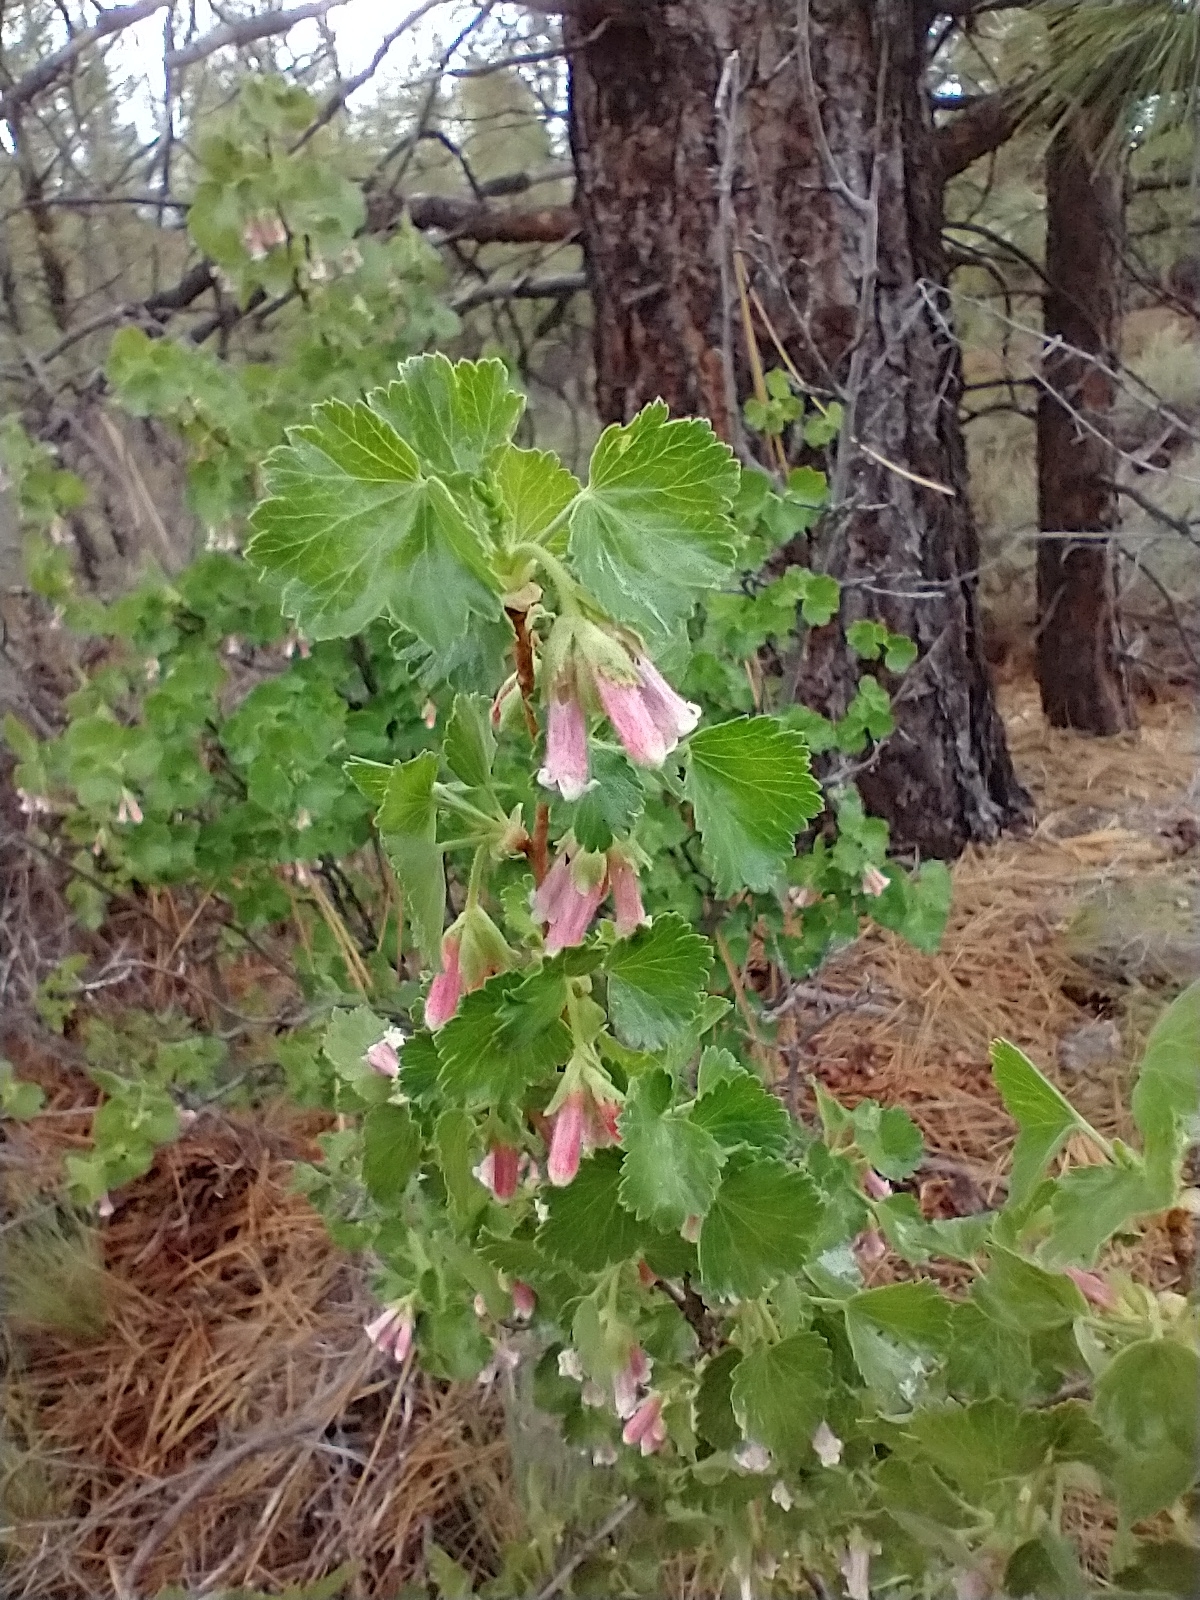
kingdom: Plantae
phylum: Tracheophyta
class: Magnoliopsida
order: Saxifragales
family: Grossulariaceae
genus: Ribes
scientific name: Ribes cereum
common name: Wax currant
